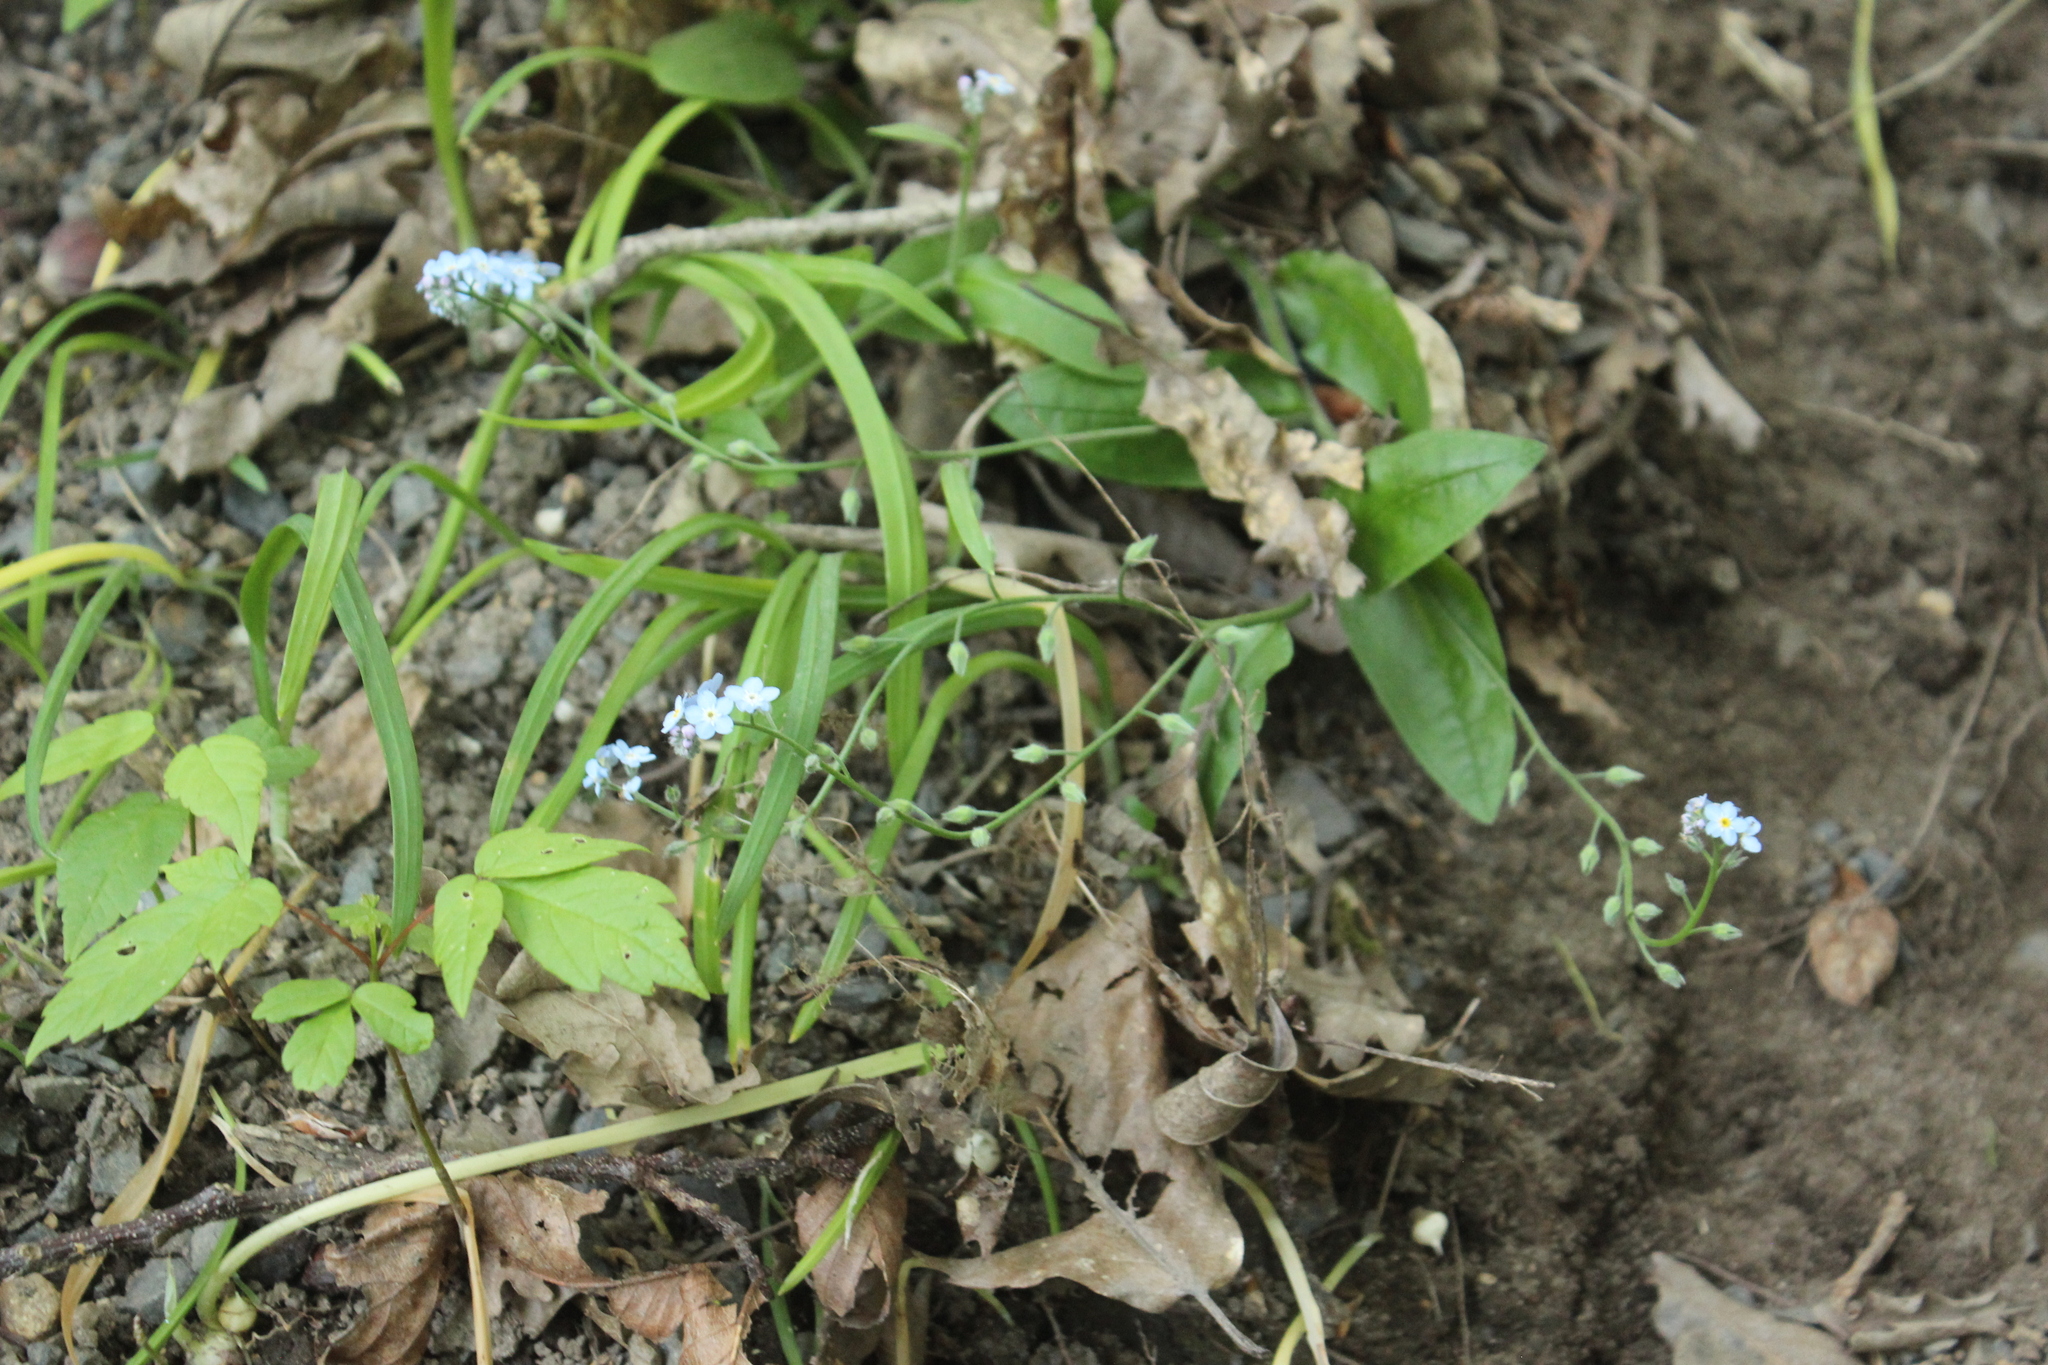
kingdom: Plantae
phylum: Tracheophyta
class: Magnoliopsida
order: Boraginales
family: Boraginaceae
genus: Myosotis
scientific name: Myosotis sylvatica
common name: Wood forget-me-not
